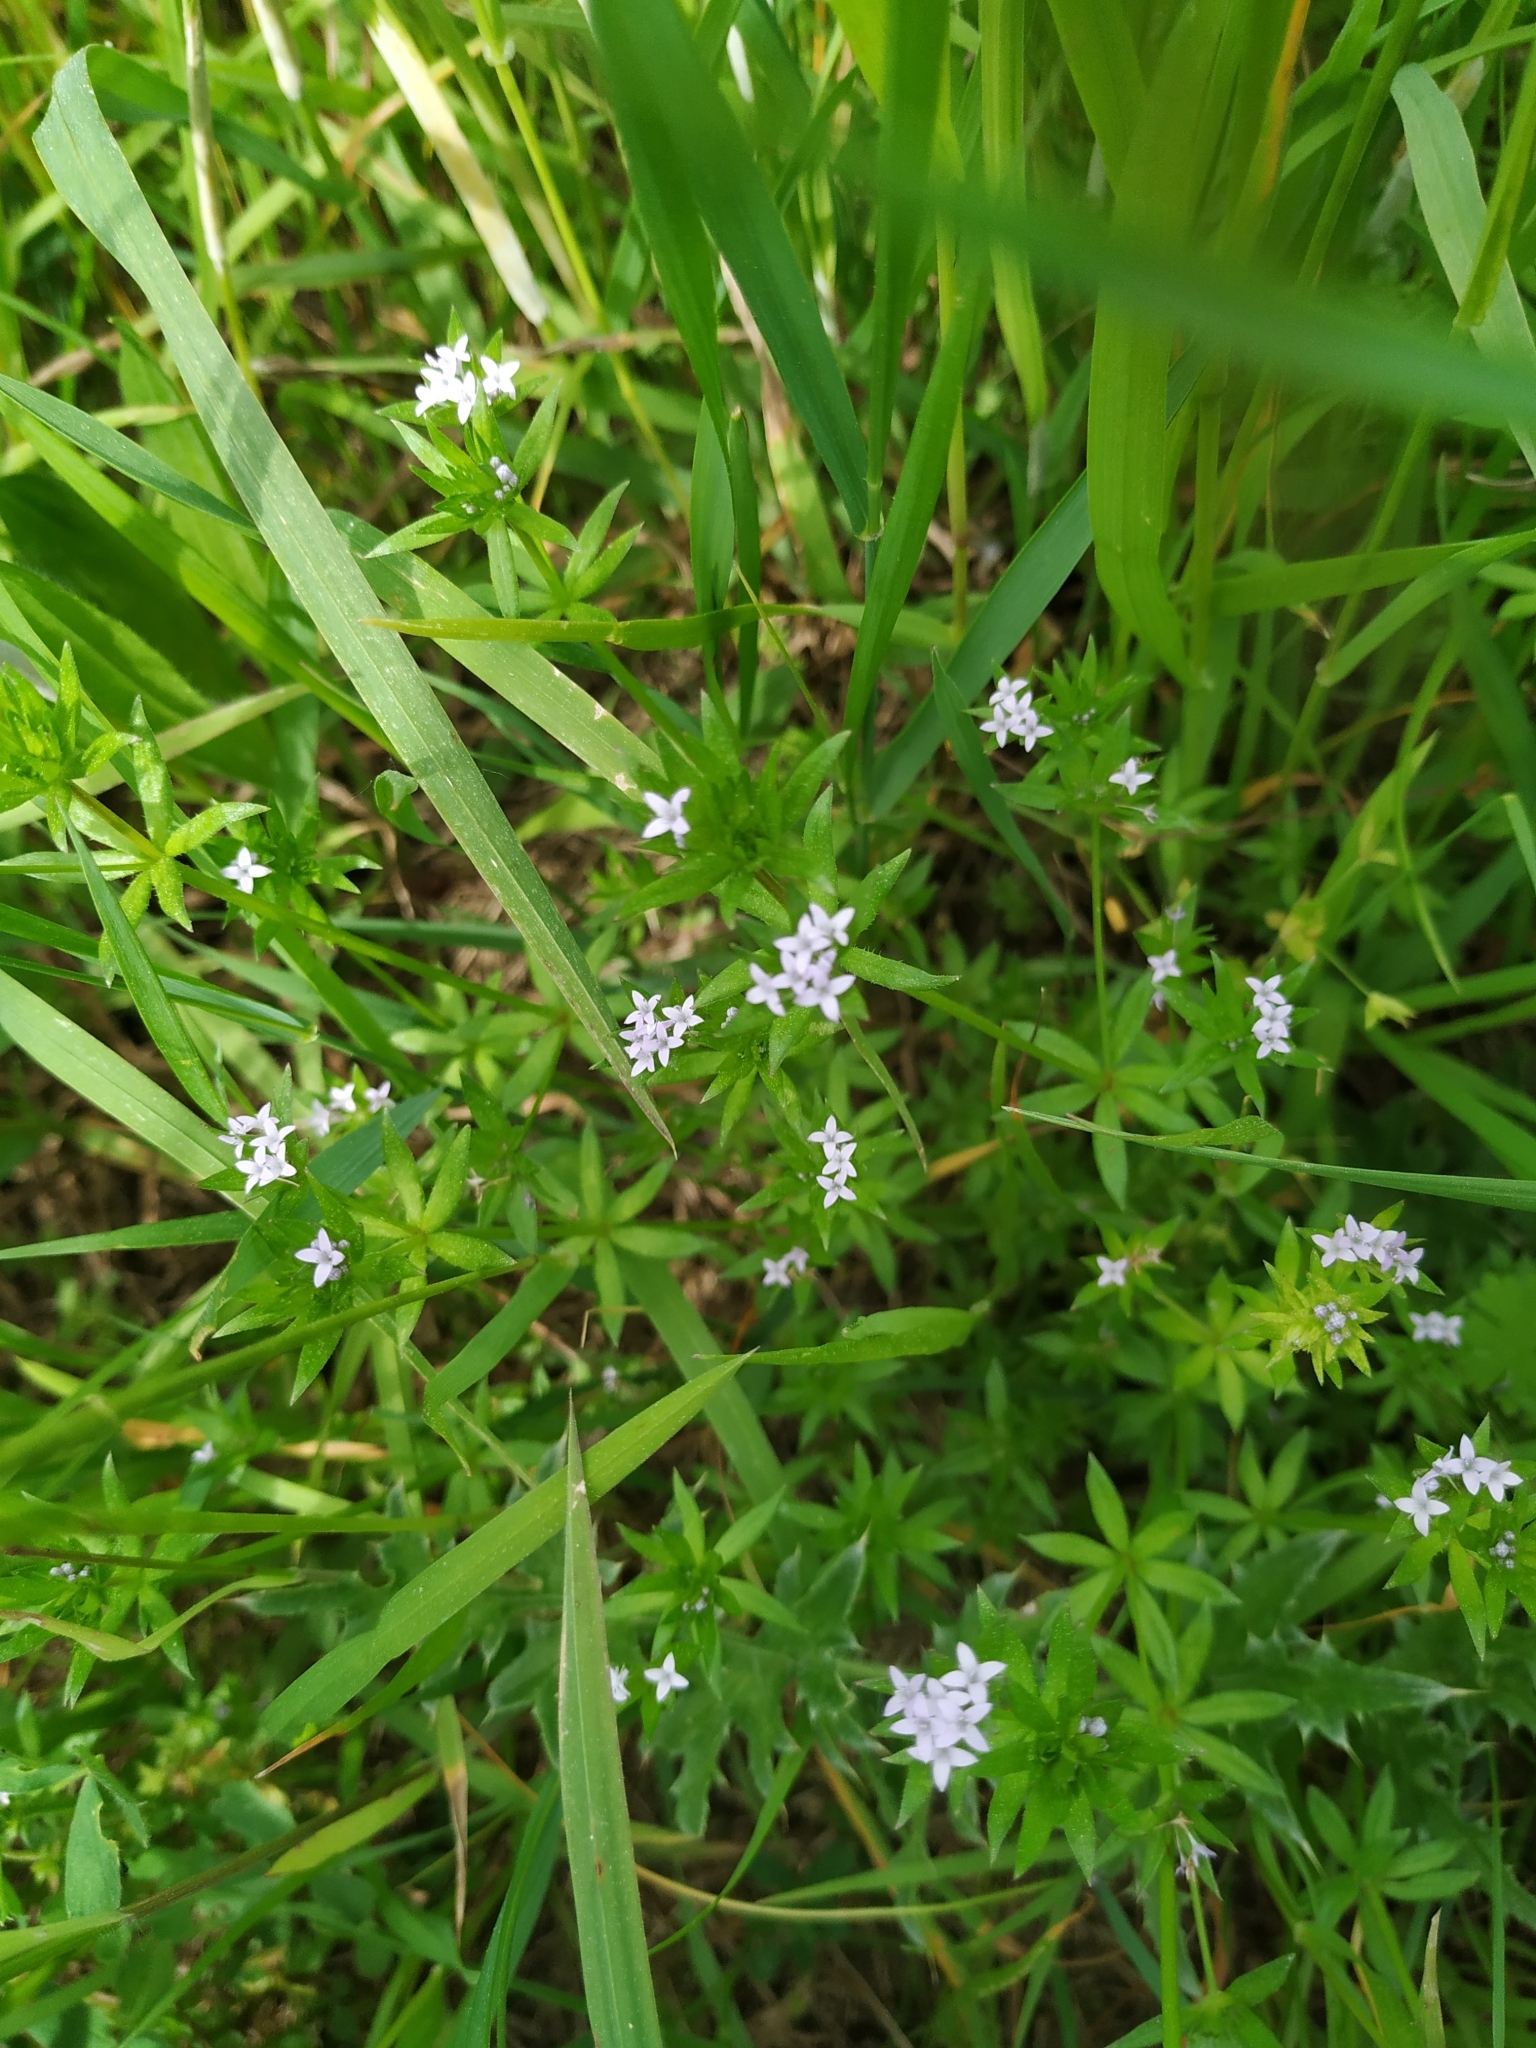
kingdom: Plantae
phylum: Tracheophyta
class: Magnoliopsida
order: Gentianales
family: Rubiaceae
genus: Sherardia
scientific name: Sherardia arvensis
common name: Field madder
